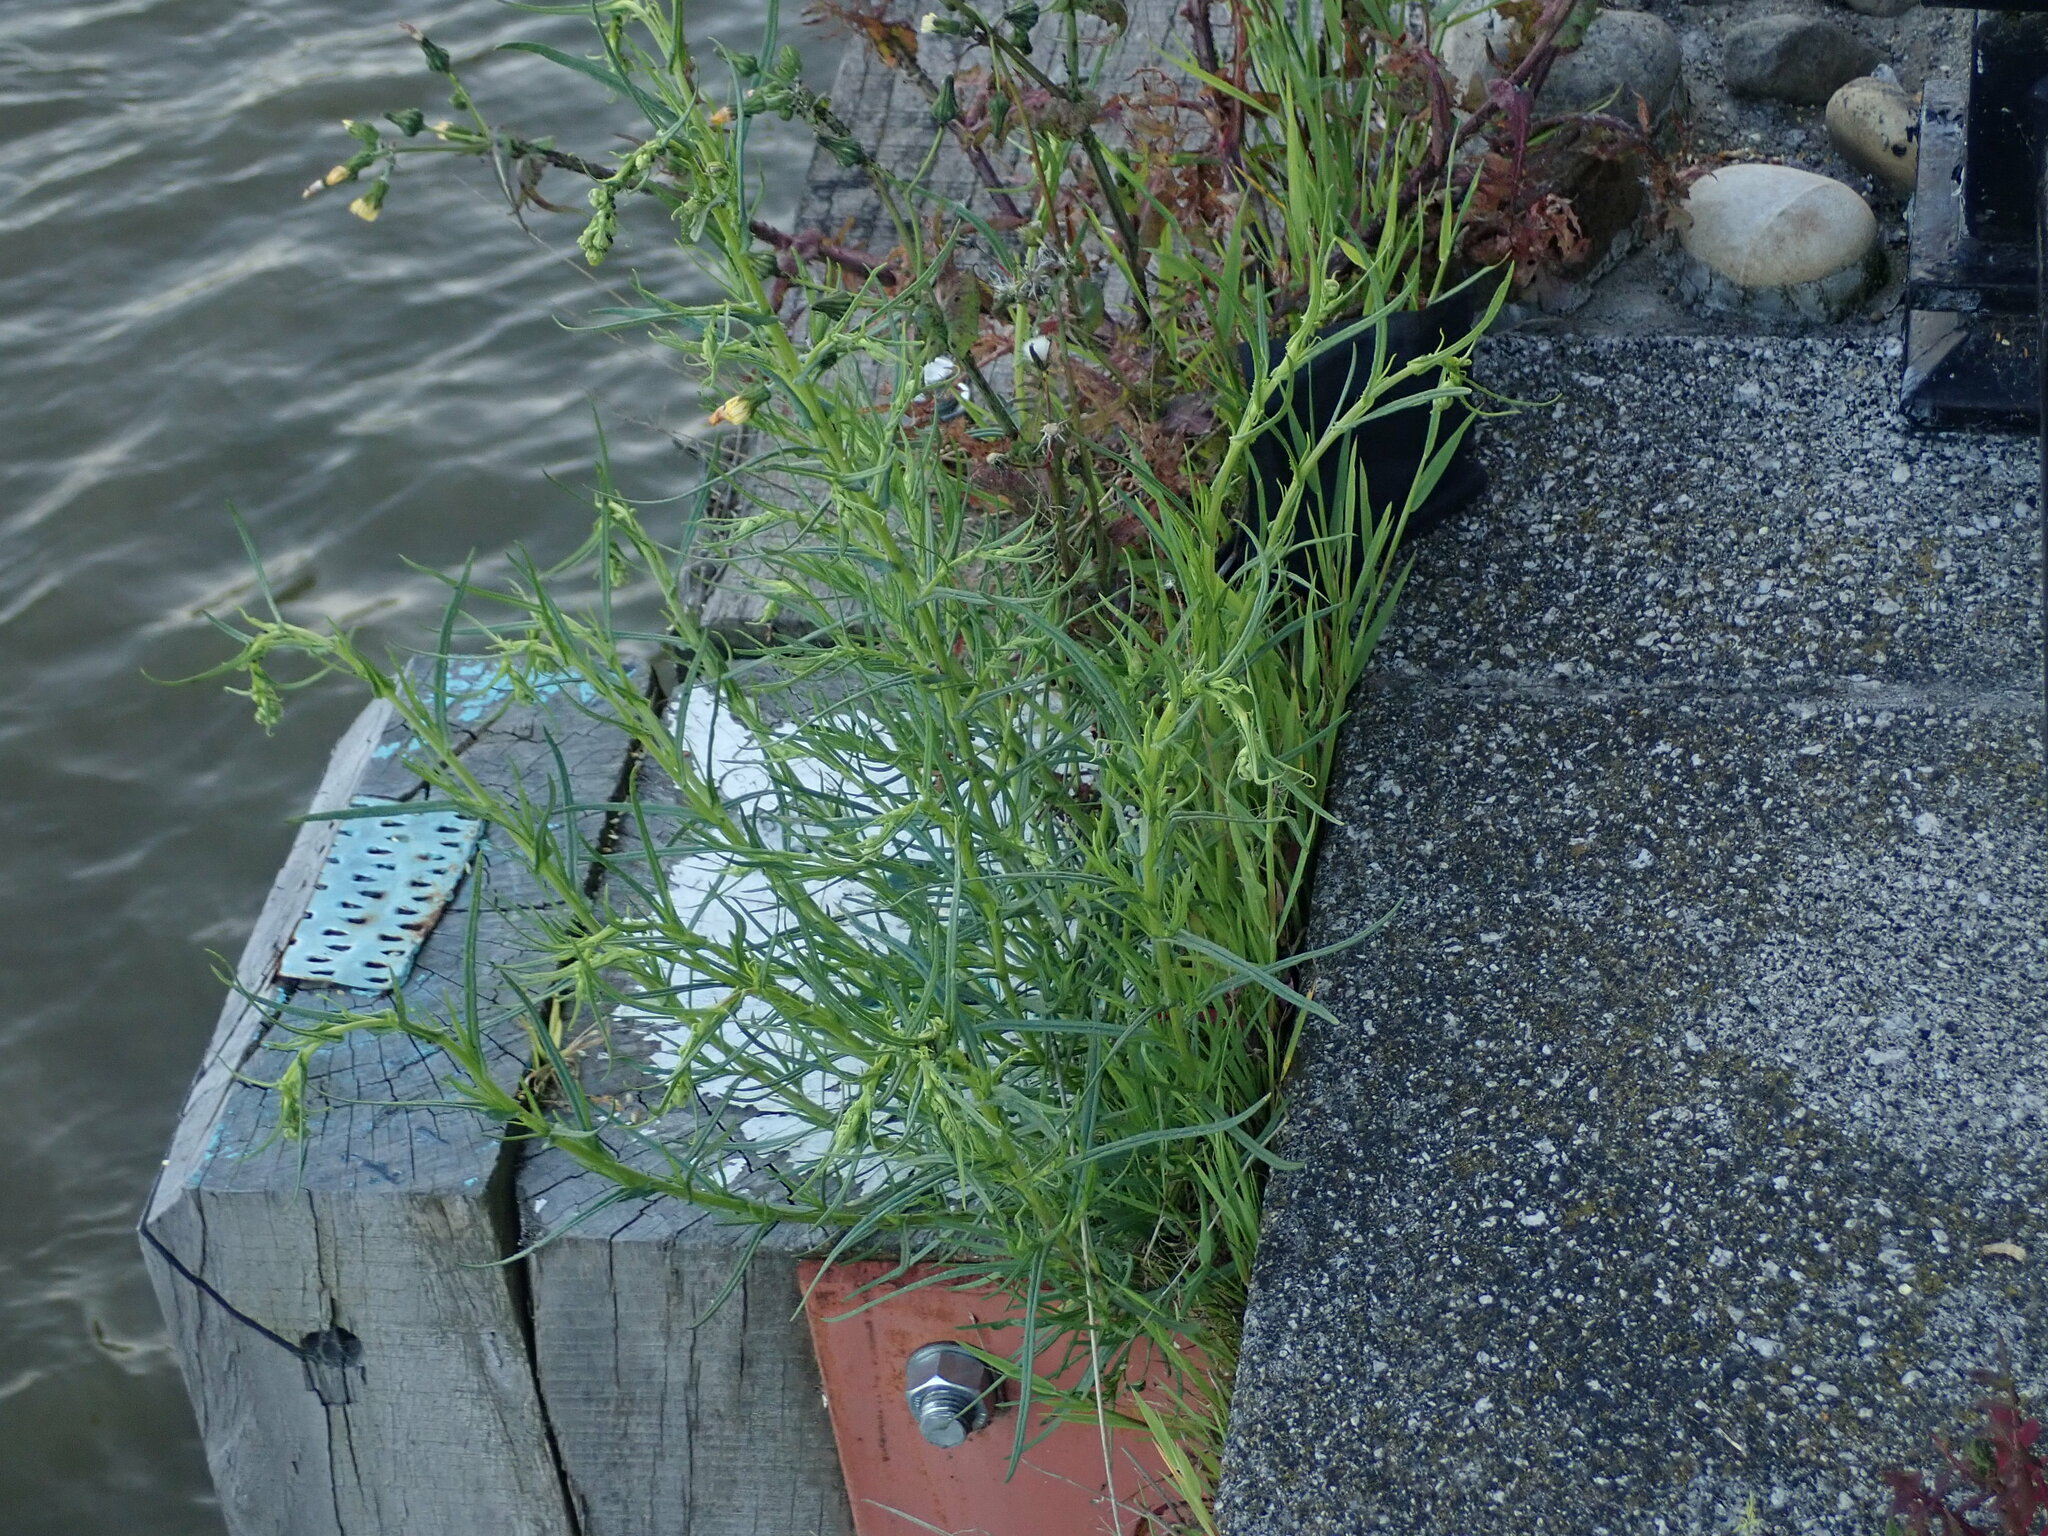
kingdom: Plantae
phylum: Tracheophyta
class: Magnoliopsida
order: Asterales
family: Asteraceae
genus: Senecio
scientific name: Senecio inaequidens
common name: Narrow-leaved ragwort
